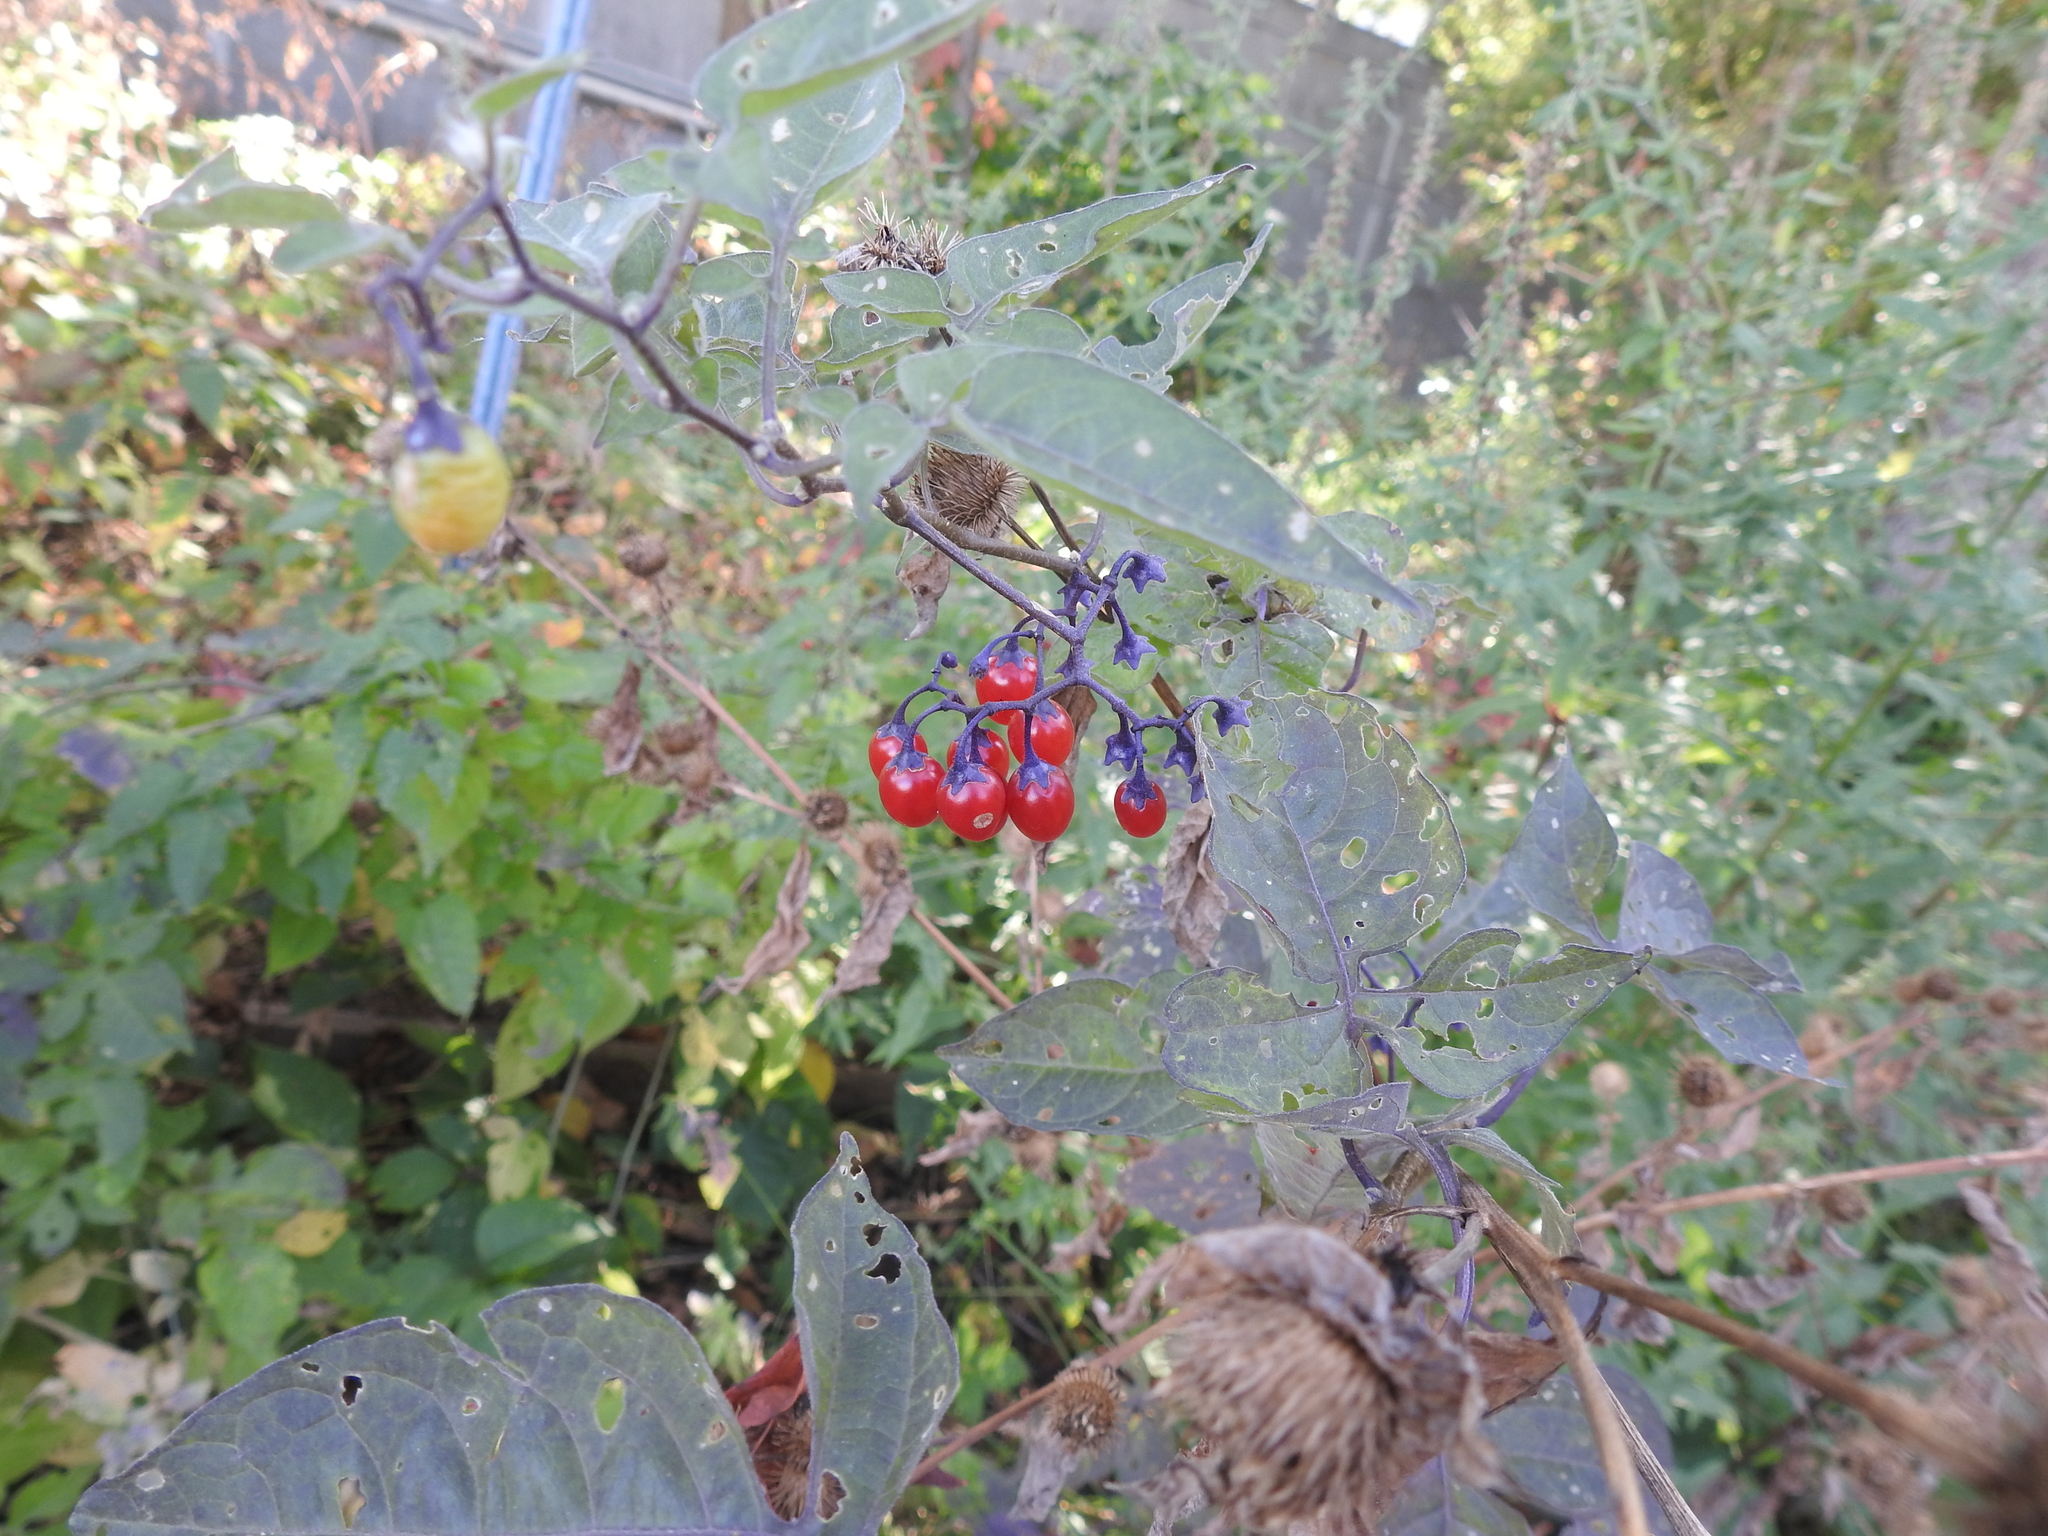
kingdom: Plantae
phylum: Tracheophyta
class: Magnoliopsida
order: Solanales
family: Solanaceae
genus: Solanum
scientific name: Solanum dulcamara
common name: Climbing nightshade
